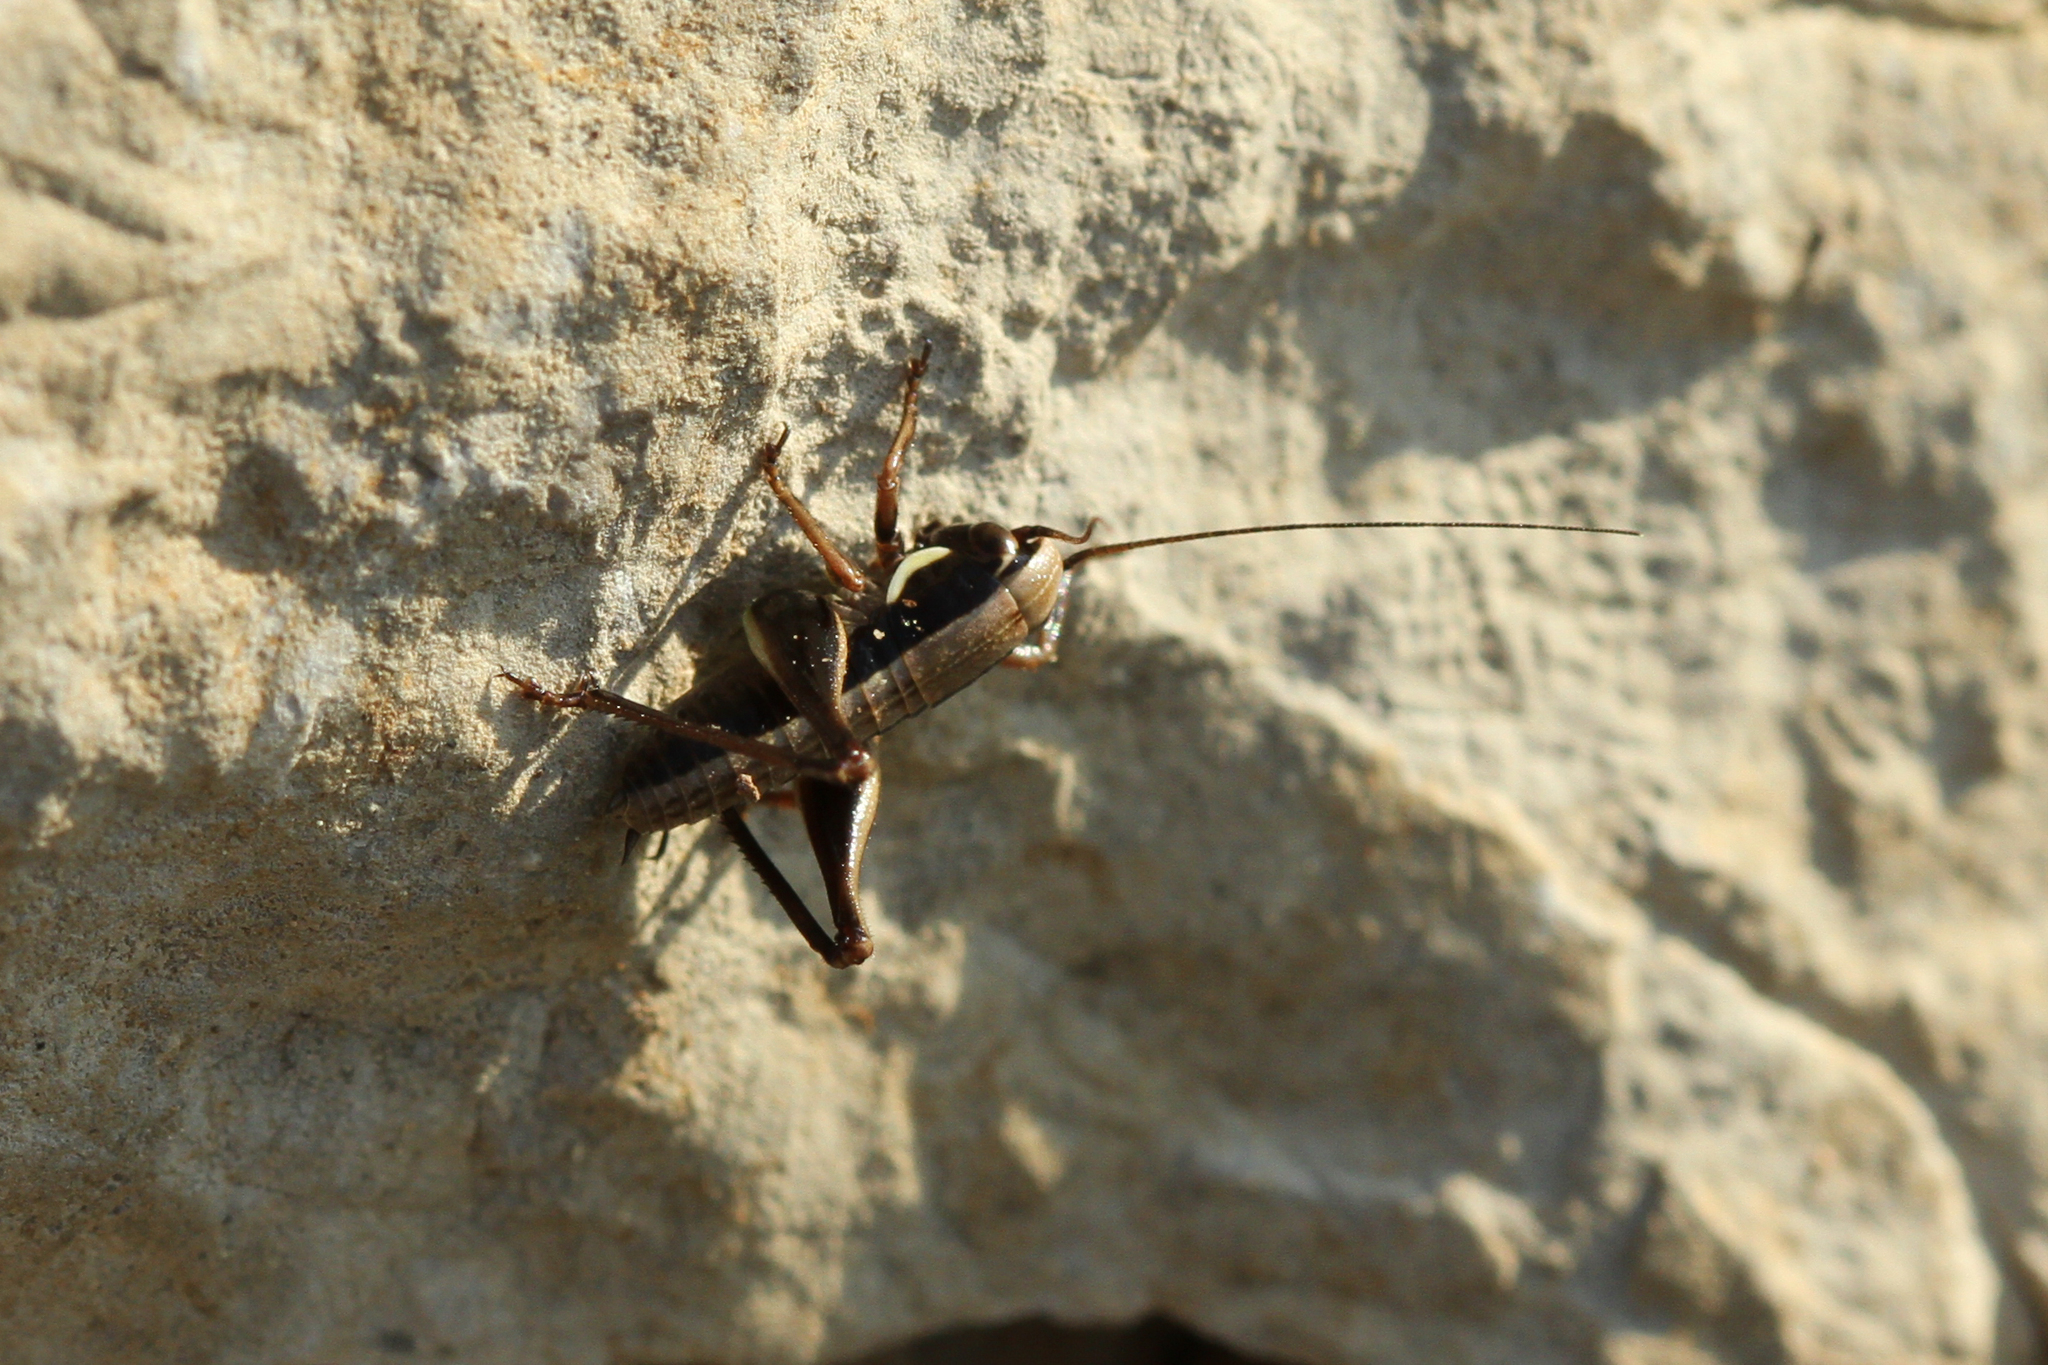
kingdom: Animalia
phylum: Arthropoda
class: Insecta
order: Orthoptera
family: Tettigoniidae
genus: Pholidoptera
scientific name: Pholidoptera femorata
